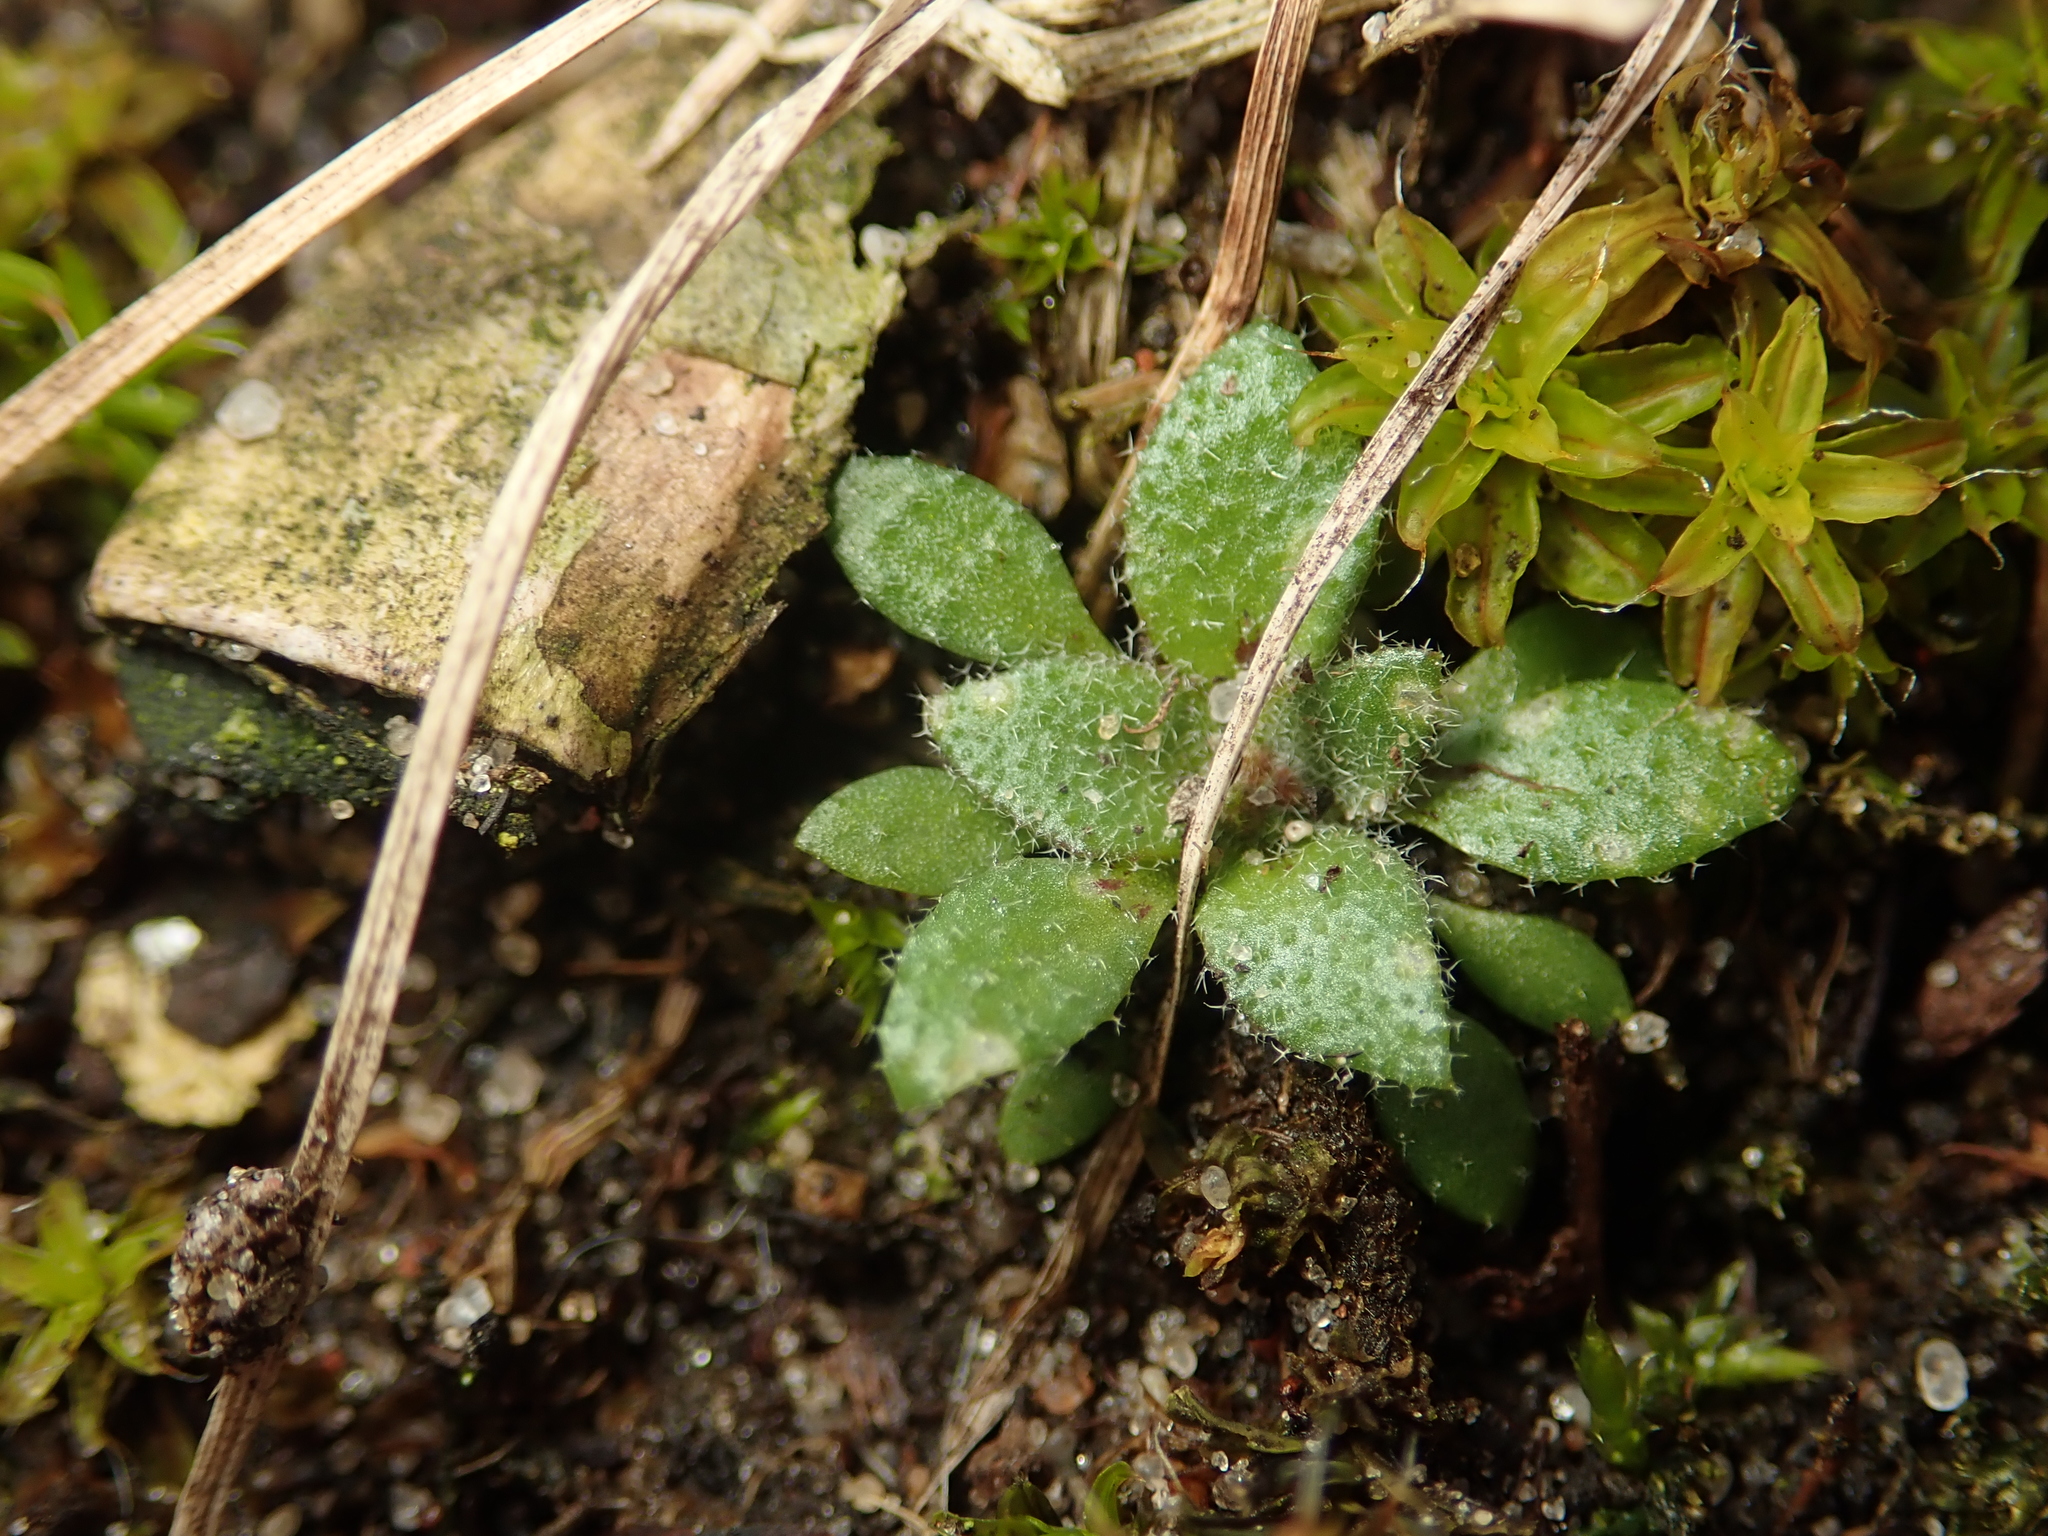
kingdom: Plantae
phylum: Tracheophyta
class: Magnoliopsida
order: Brassicales
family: Brassicaceae
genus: Draba
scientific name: Draba verna
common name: Spring draba
